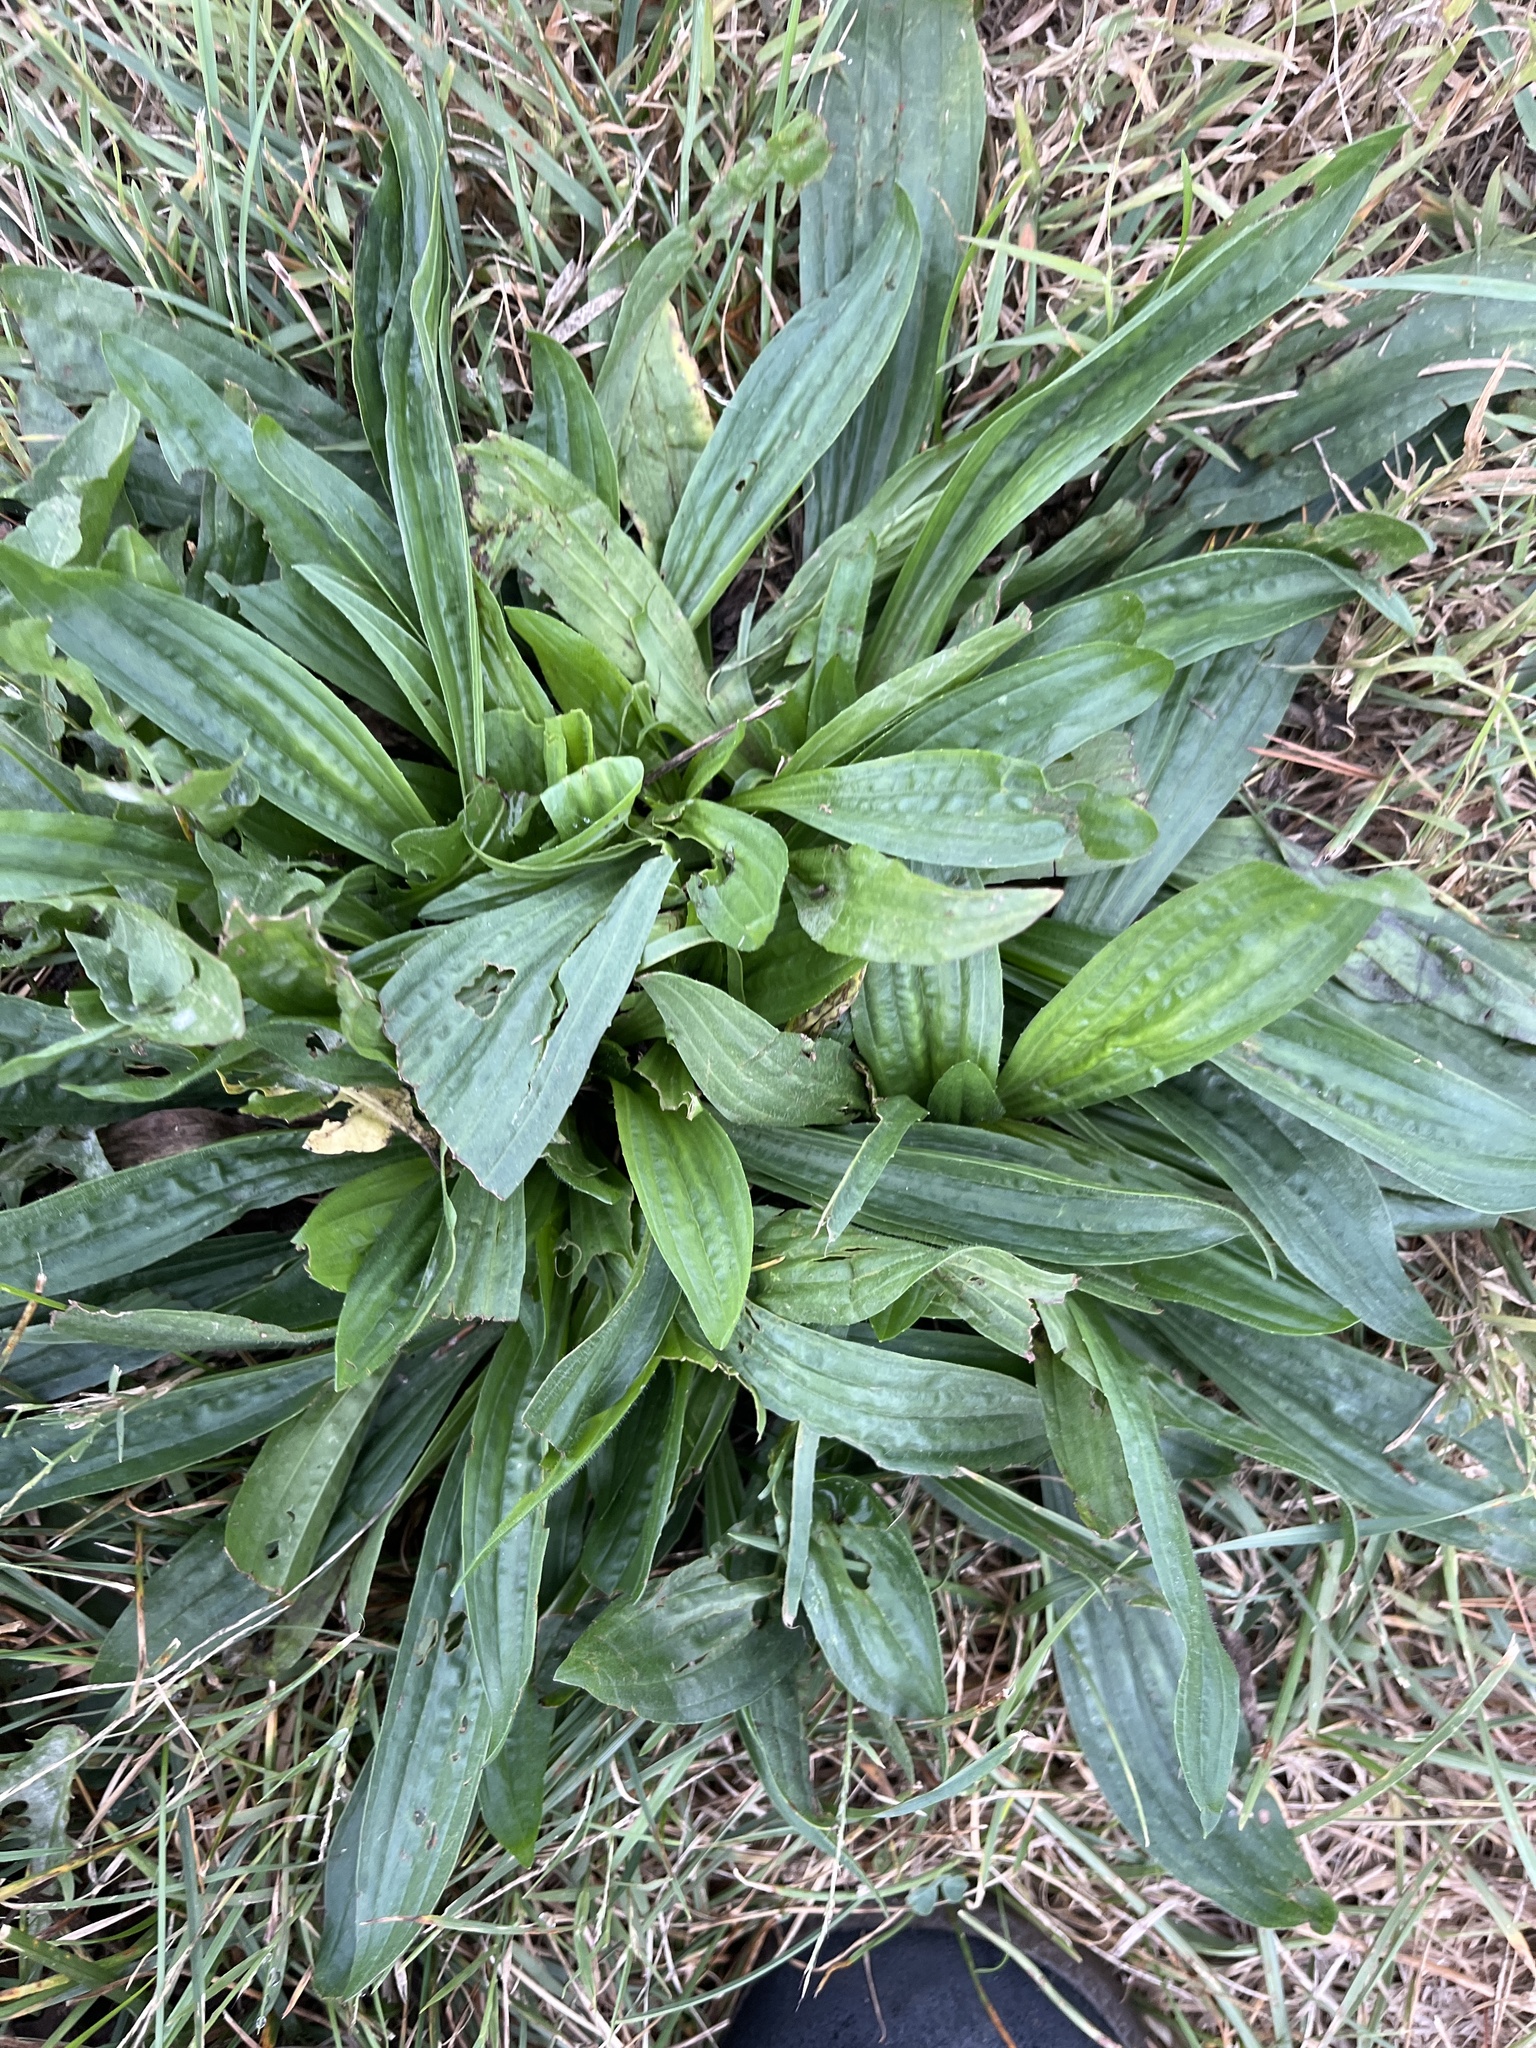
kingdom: Plantae
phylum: Tracheophyta
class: Magnoliopsida
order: Lamiales
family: Plantaginaceae
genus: Plantago
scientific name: Plantago lanceolata
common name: Ribwort plantain
